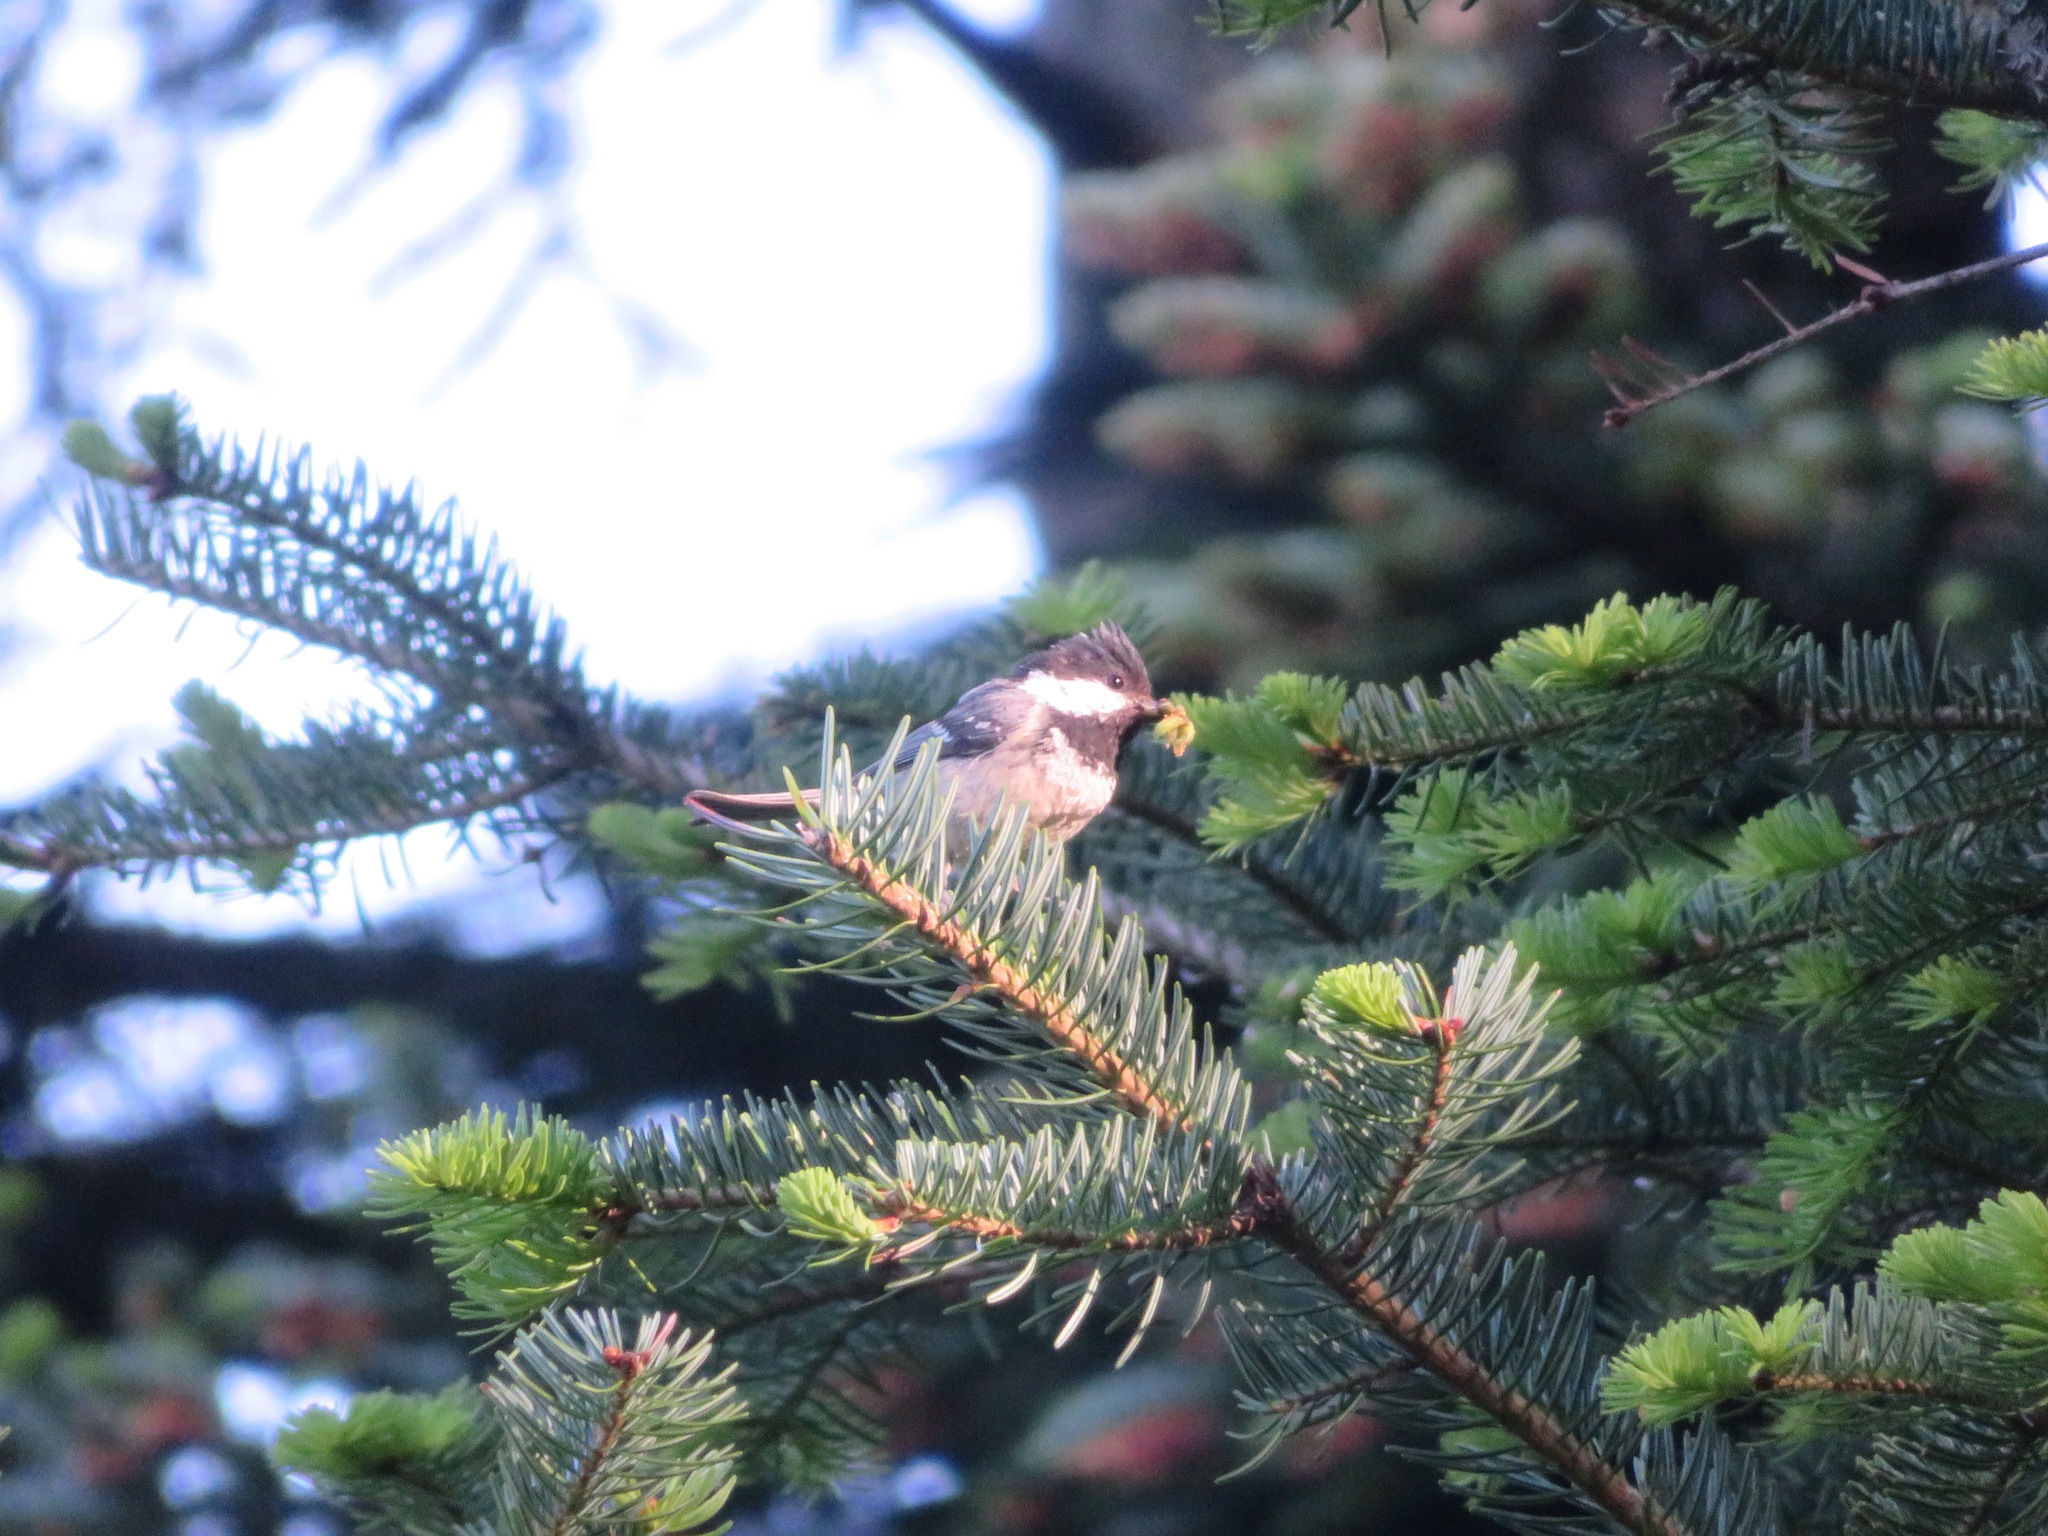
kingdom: Animalia
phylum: Chordata
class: Aves
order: Passeriformes
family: Paridae
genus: Periparus
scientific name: Periparus ater
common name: Coal tit
